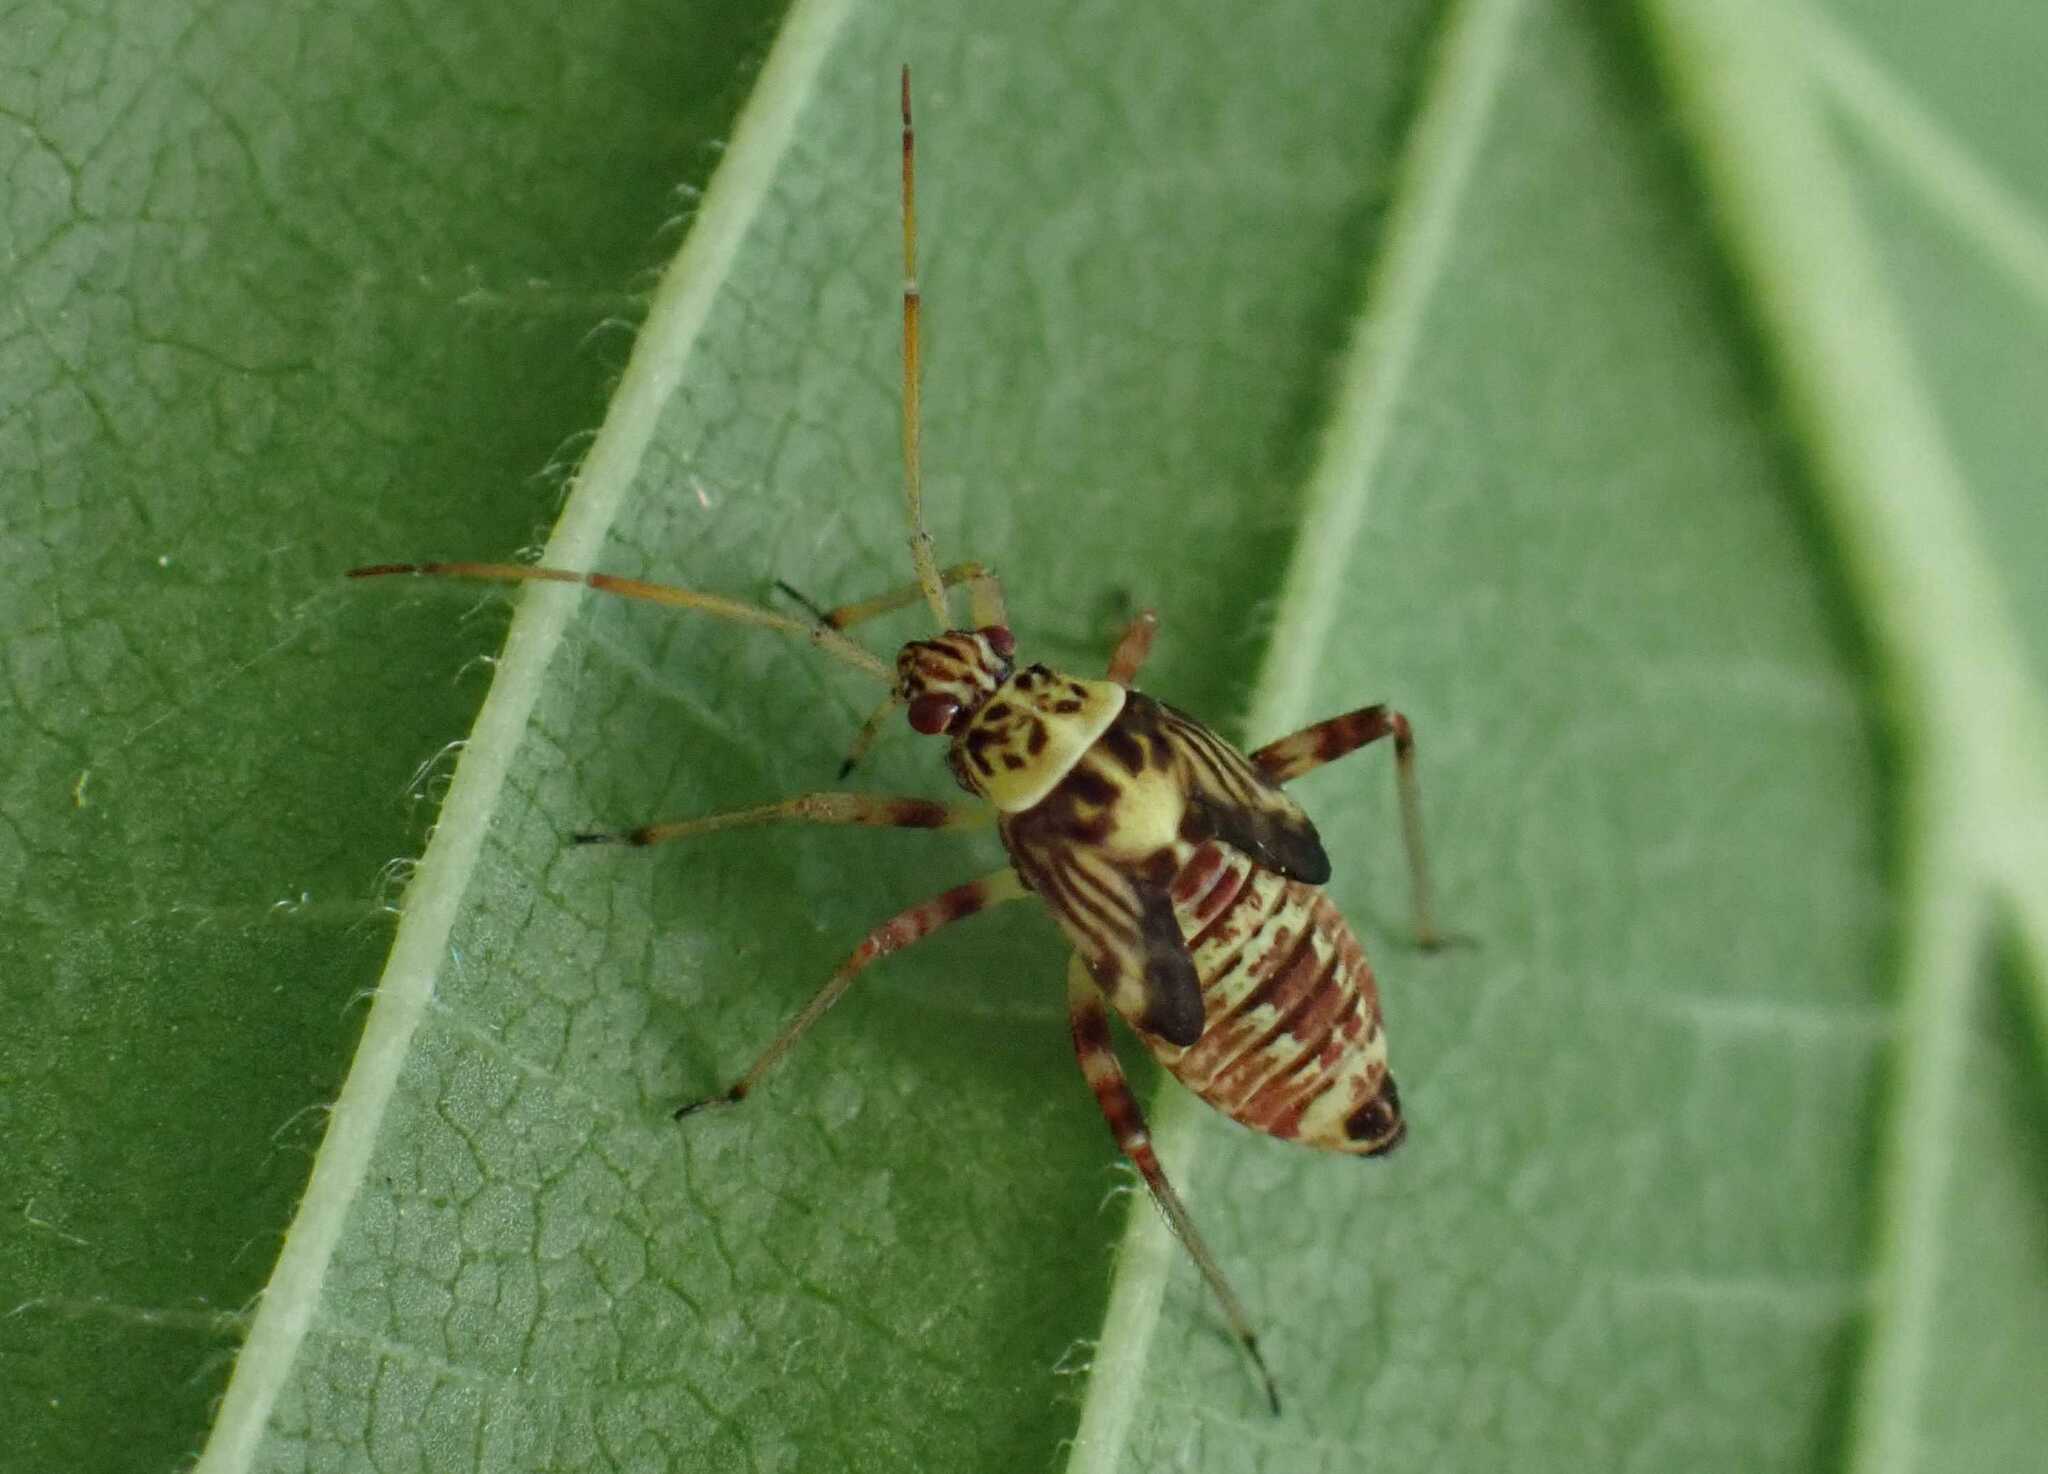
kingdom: Animalia
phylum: Arthropoda
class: Insecta
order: Hemiptera
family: Miridae
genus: Rhabdomiris
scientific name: Rhabdomiris striatellus
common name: Plant bug
